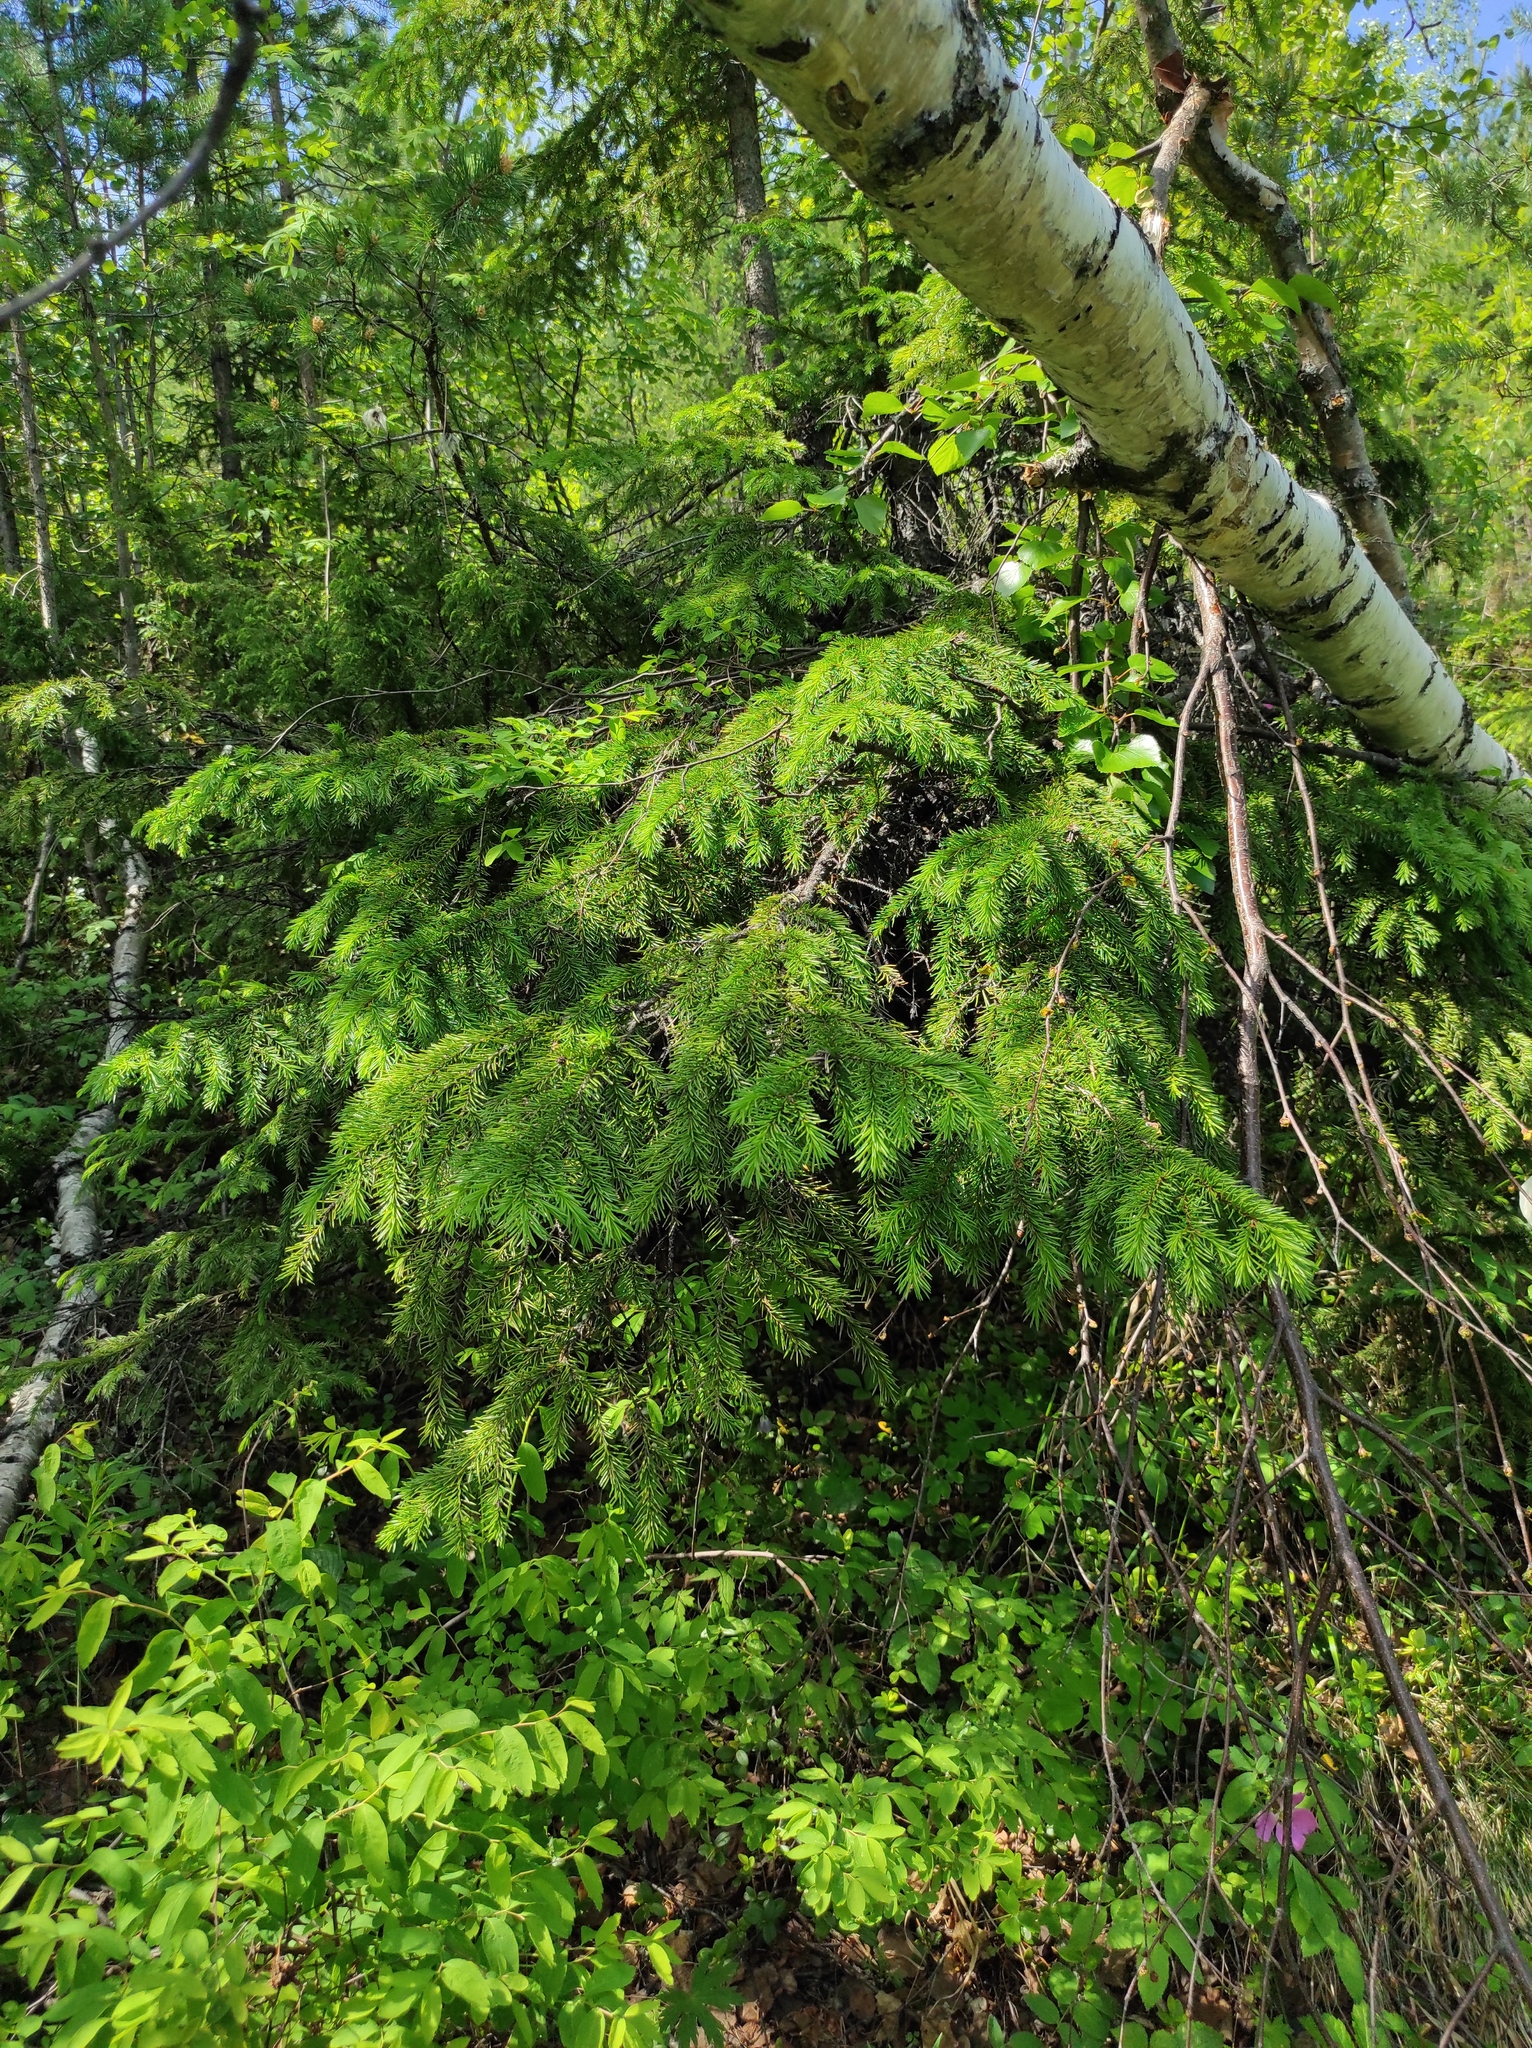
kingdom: Plantae
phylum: Tracheophyta
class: Pinopsida
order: Pinales
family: Pinaceae
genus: Picea
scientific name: Picea obovata
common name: Siberian spruce
